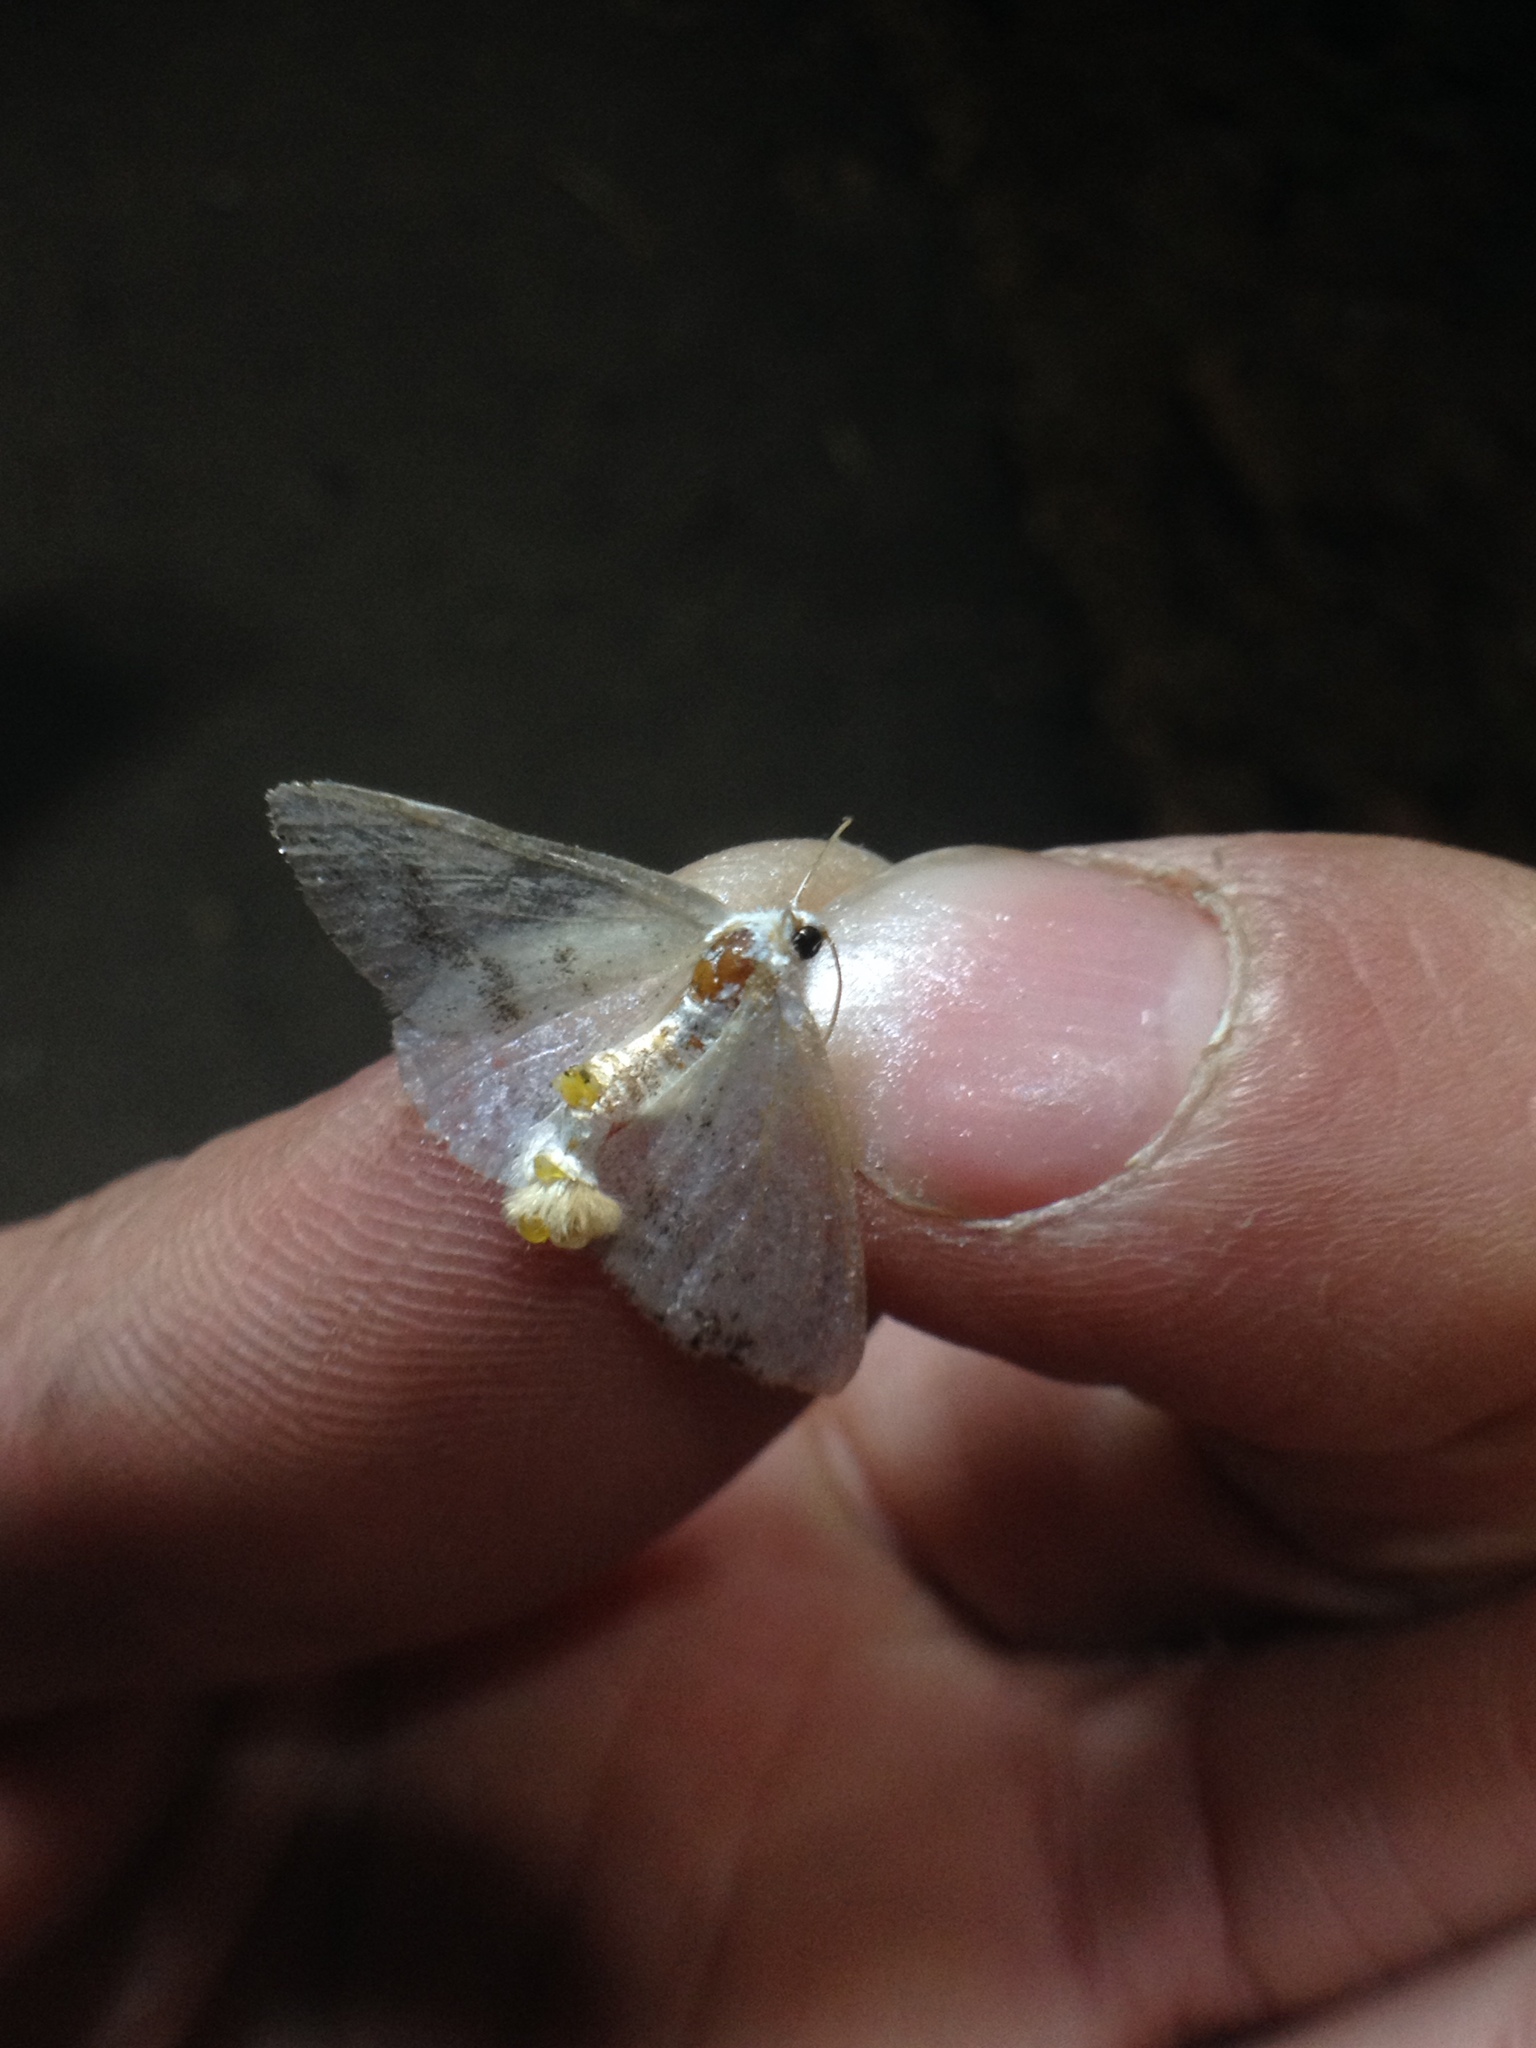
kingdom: Animalia
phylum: Arthropoda
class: Insecta
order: Lepidoptera
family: Geometridae
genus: Lomographa
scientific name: Lomographa temerata
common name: Clouded silver
